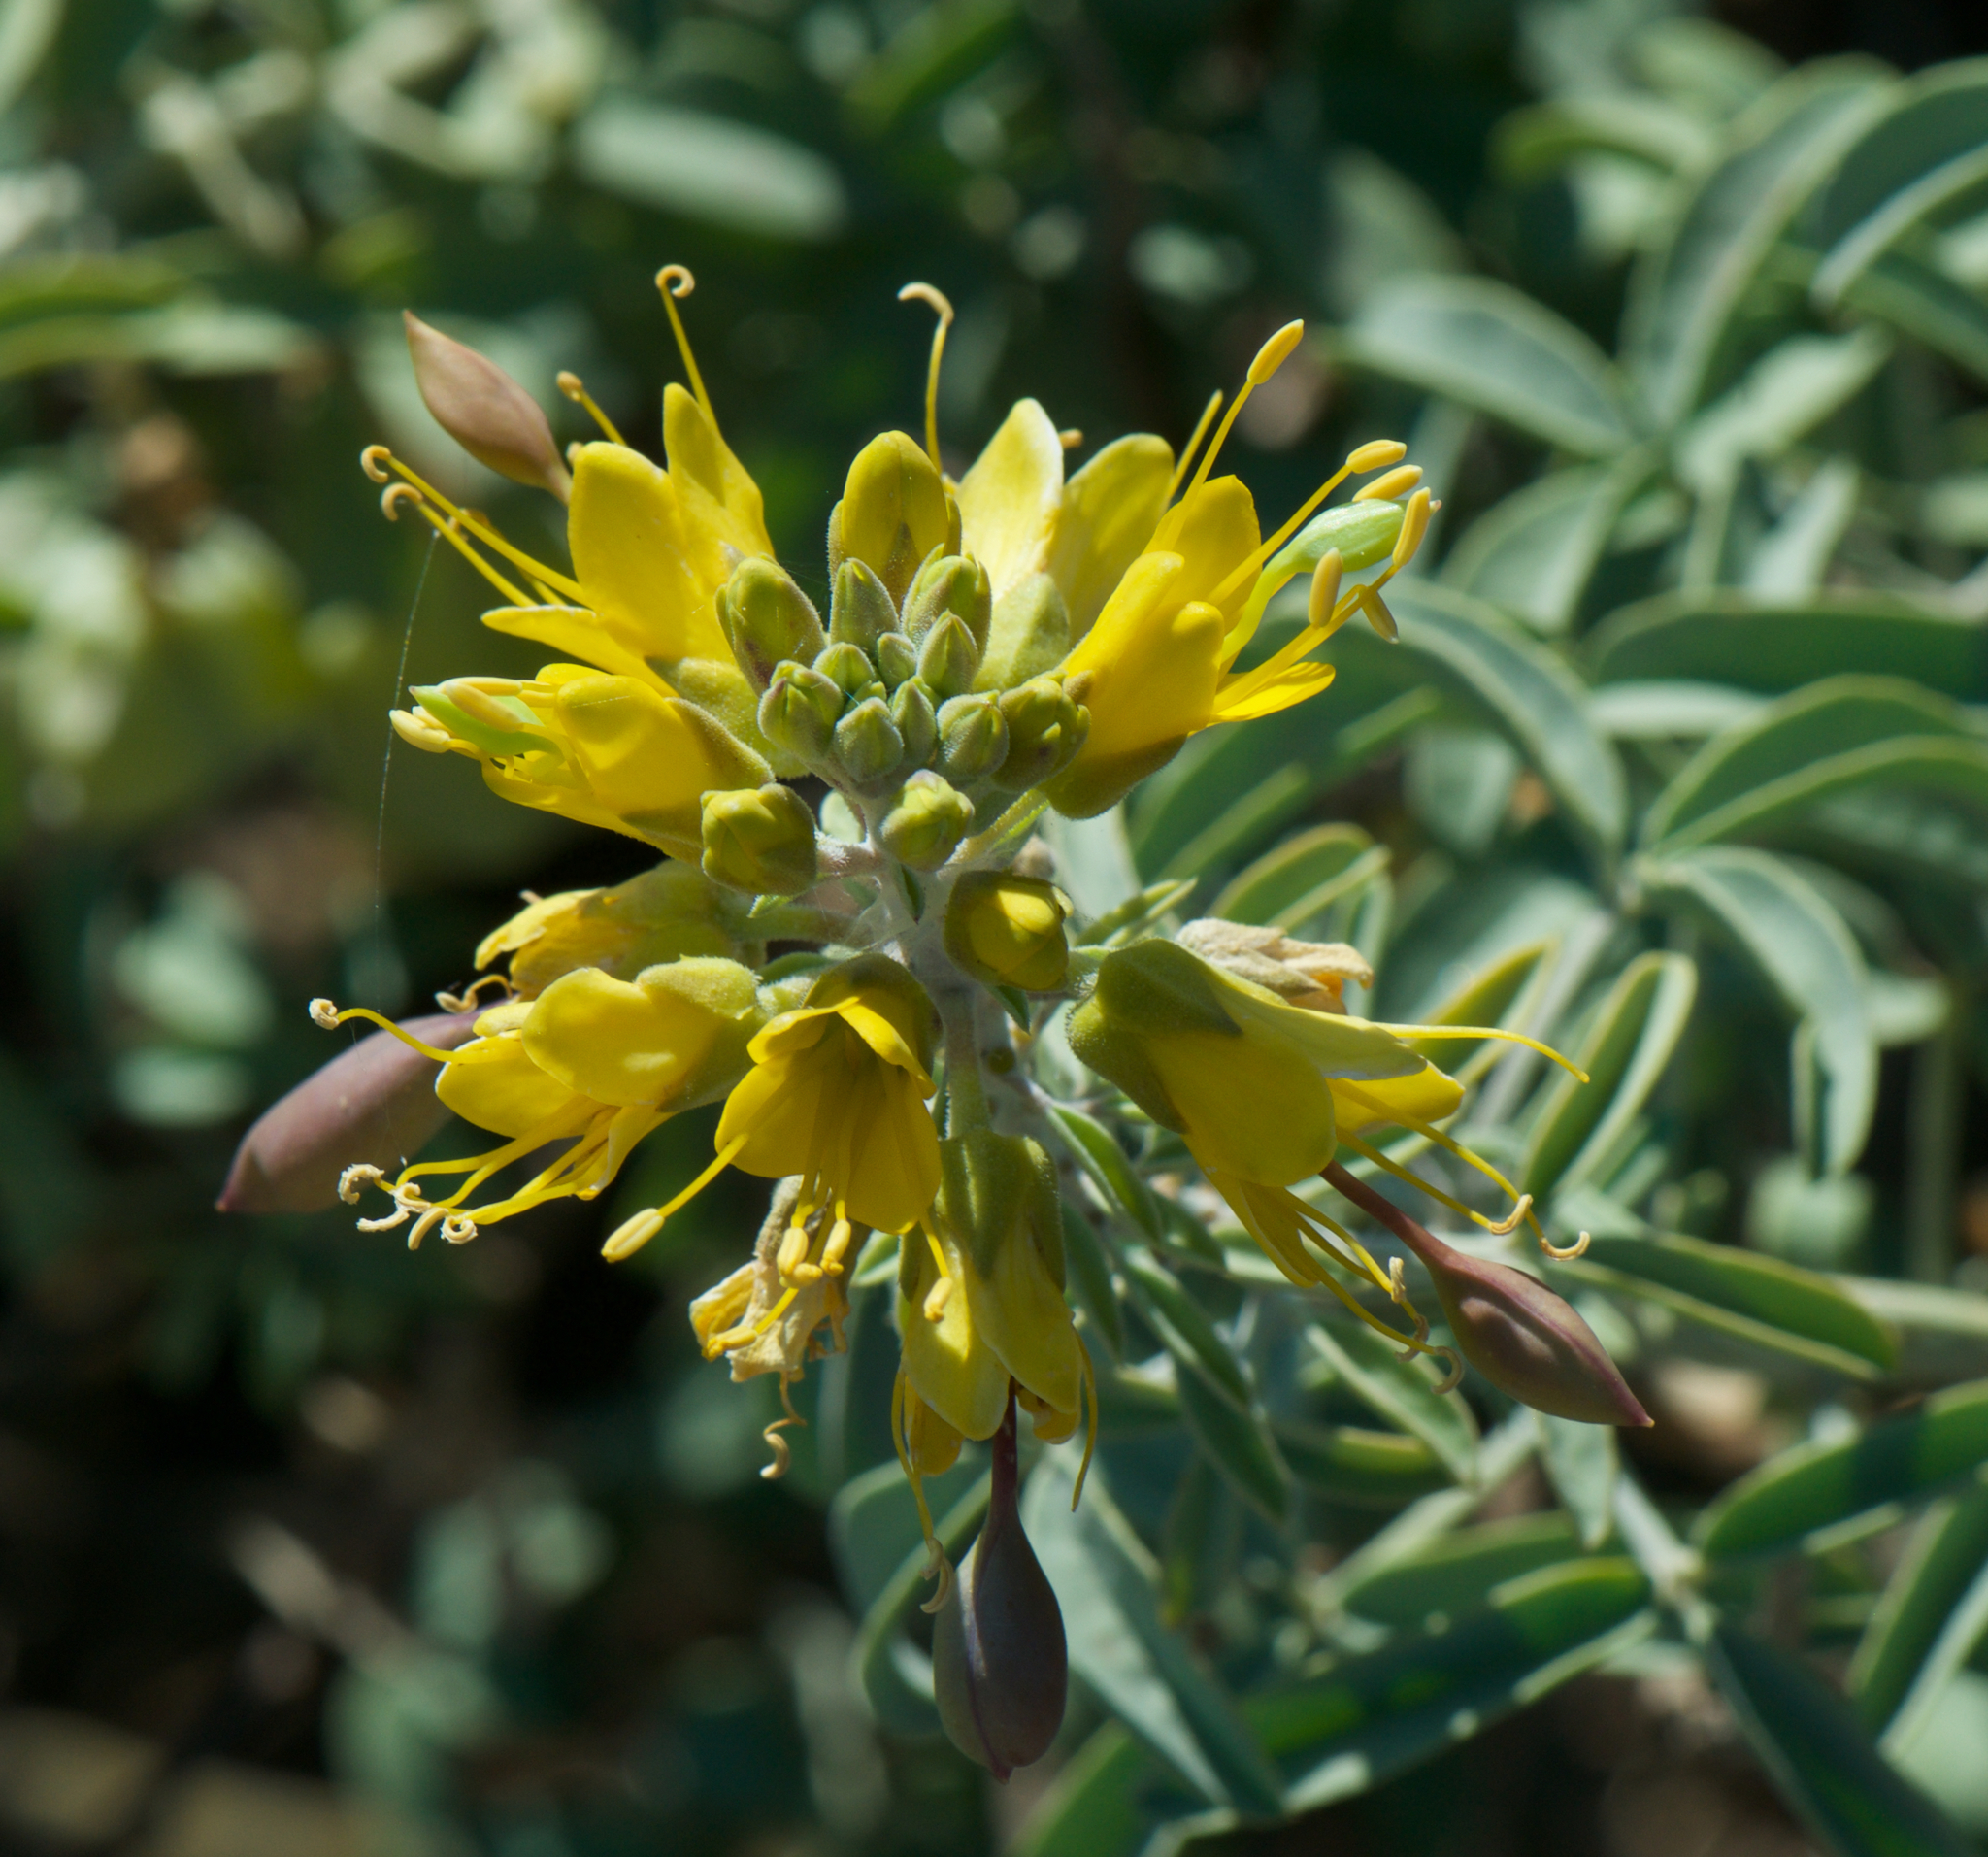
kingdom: Plantae
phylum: Tracheophyta
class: Magnoliopsida
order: Brassicales
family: Cleomaceae
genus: Cleomella
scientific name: Cleomella arborea
